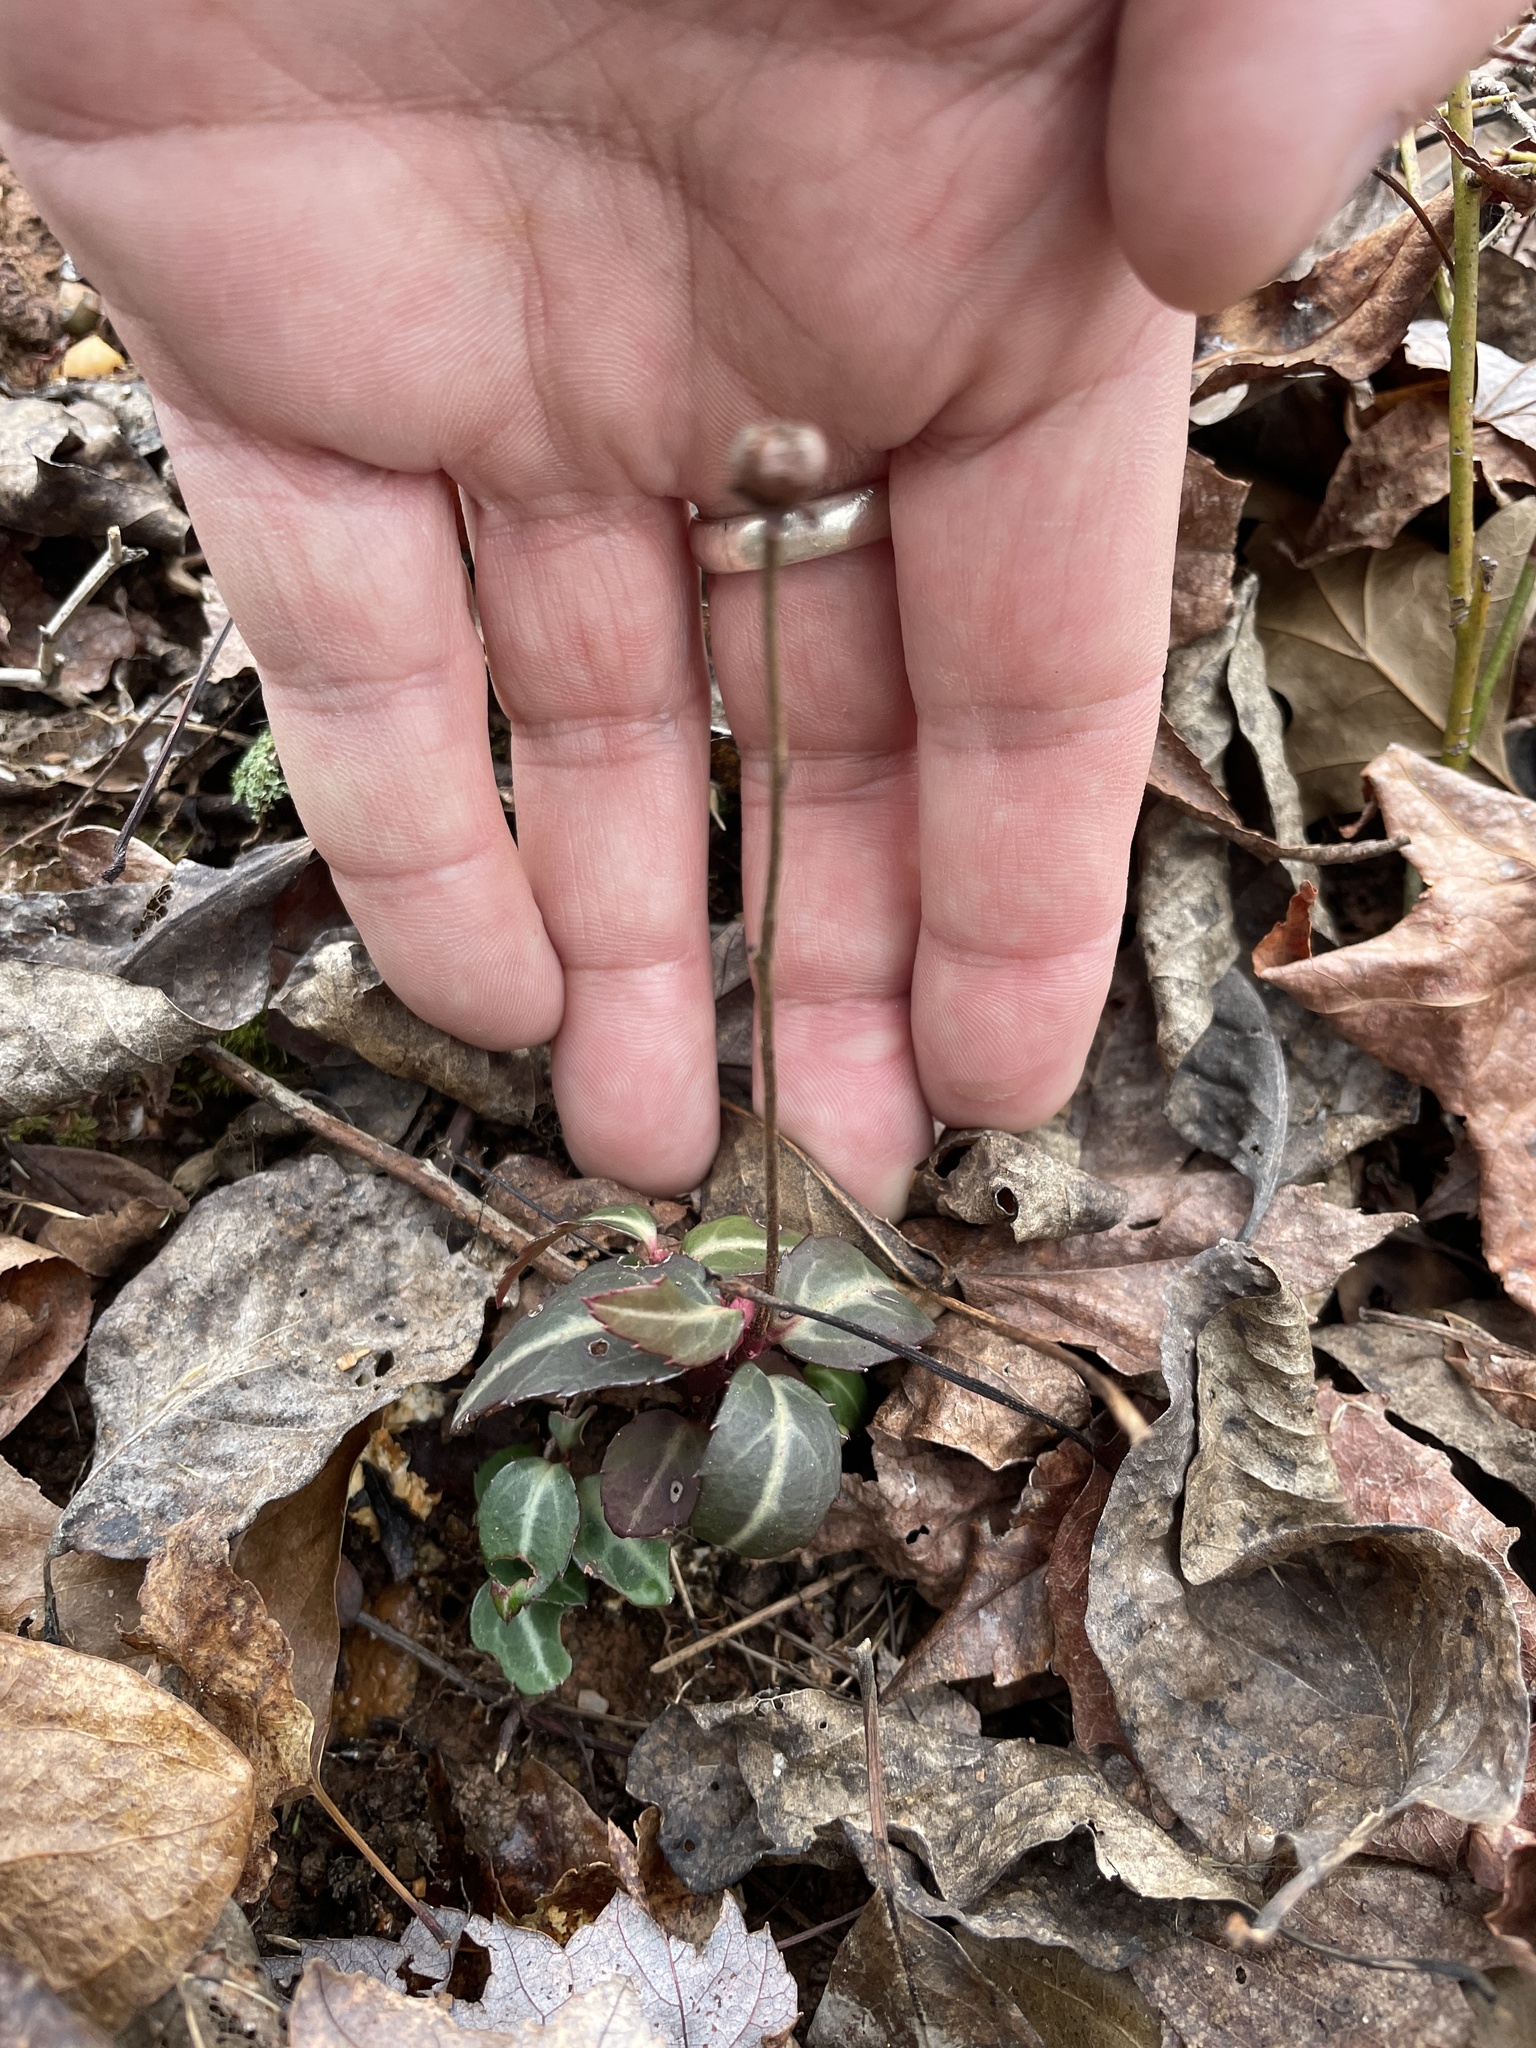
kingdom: Plantae
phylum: Tracheophyta
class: Magnoliopsida
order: Ericales
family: Ericaceae
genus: Chimaphila
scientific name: Chimaphila maculata
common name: Spotted pipsissewa
